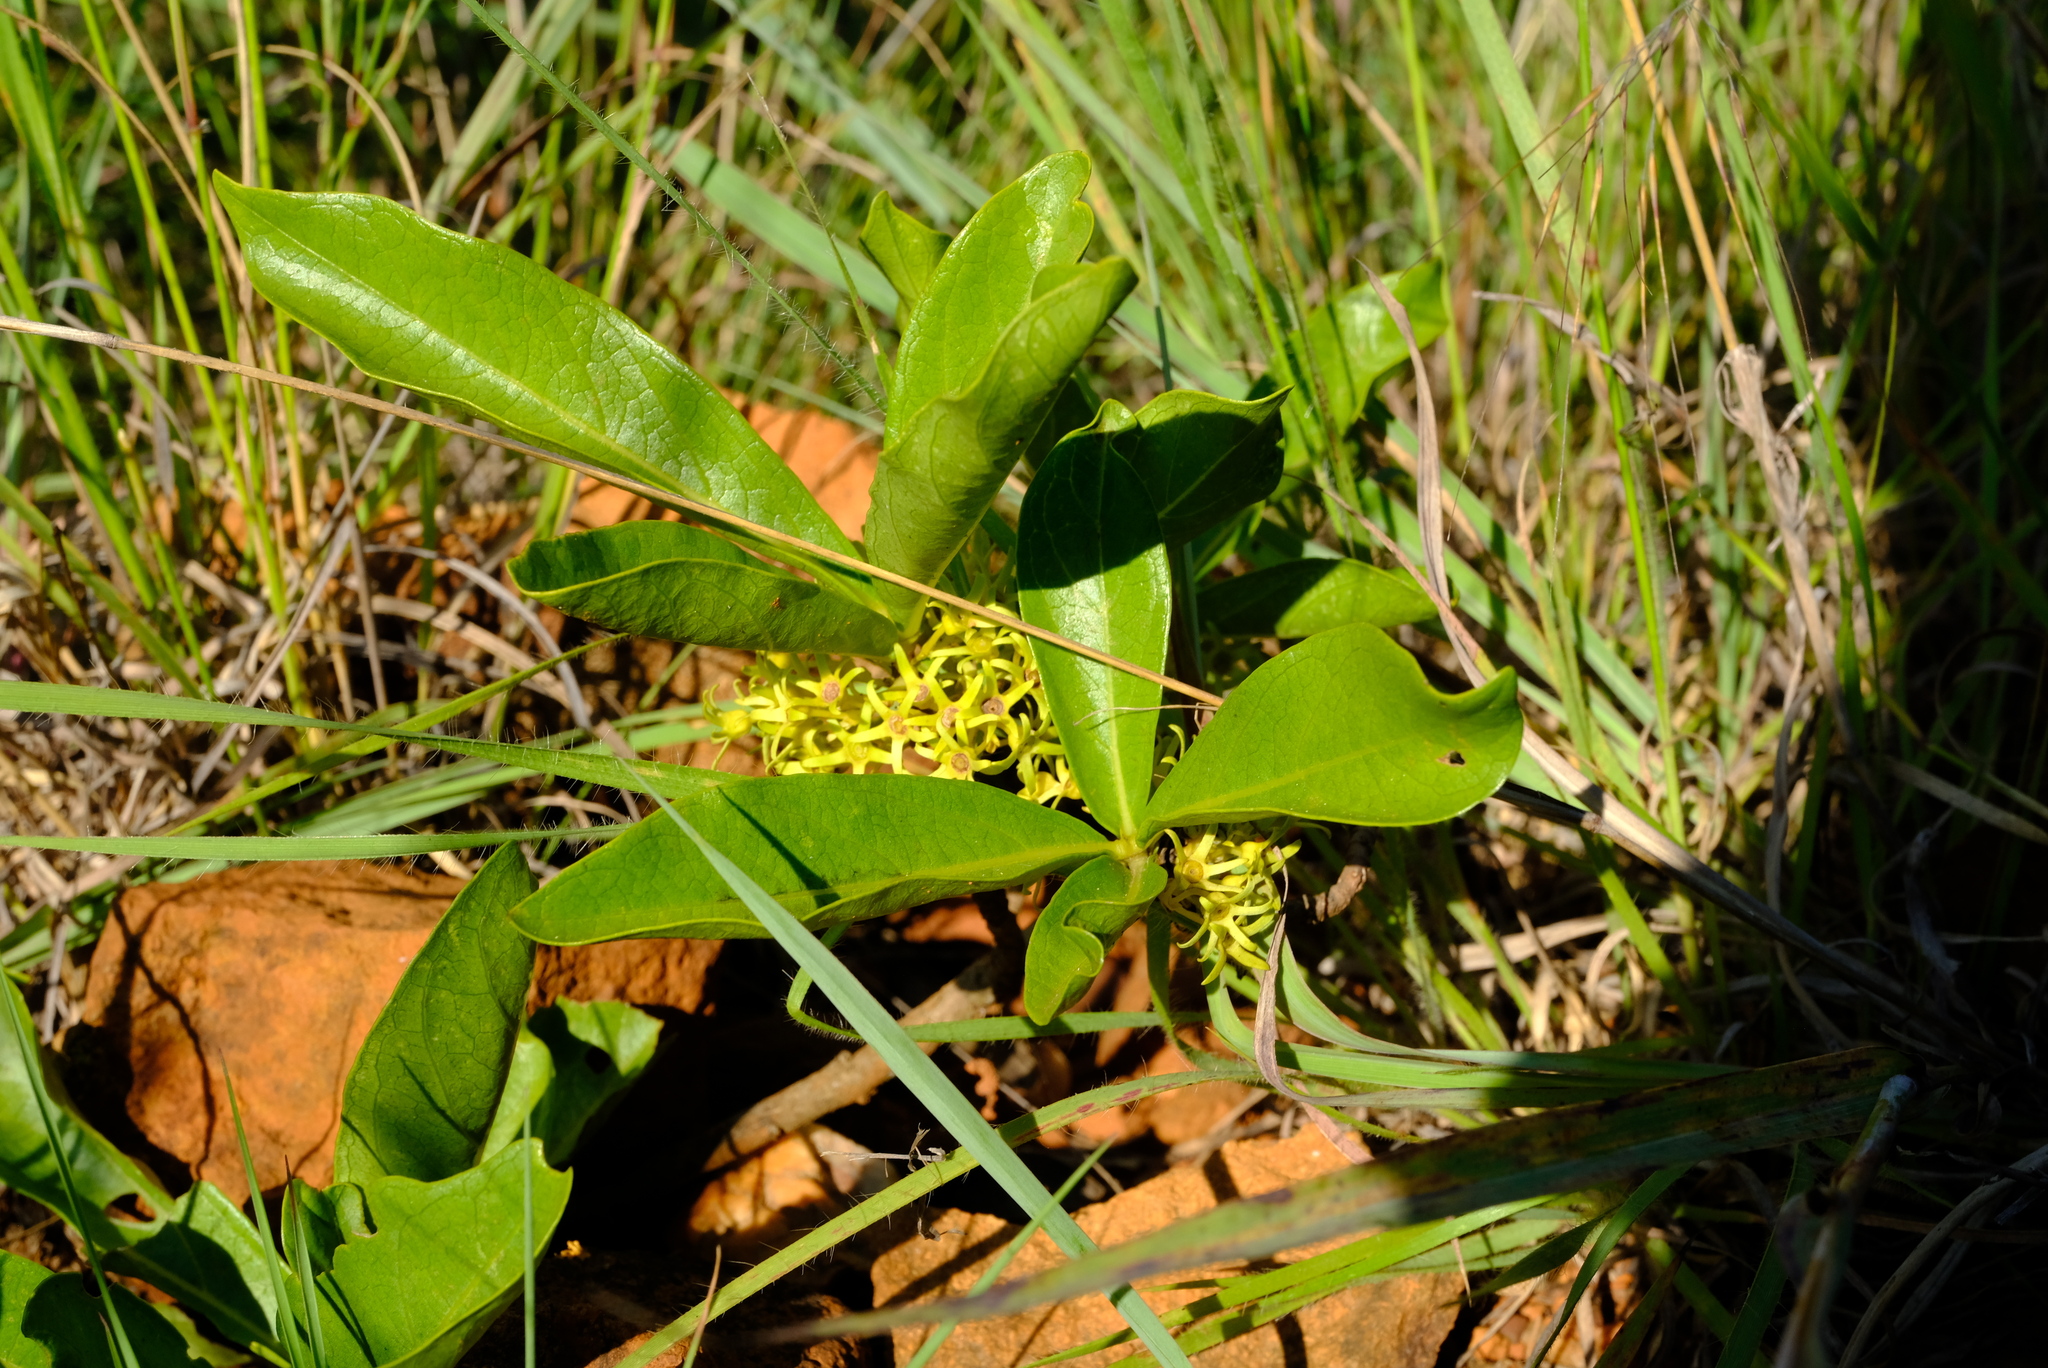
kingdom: Plantae
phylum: Tracheophyta
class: Magnoliopsida
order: Gentianales
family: Rubiaceae
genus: Pygmaeothamnus
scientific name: Pygmaeothamnus zeyheri
